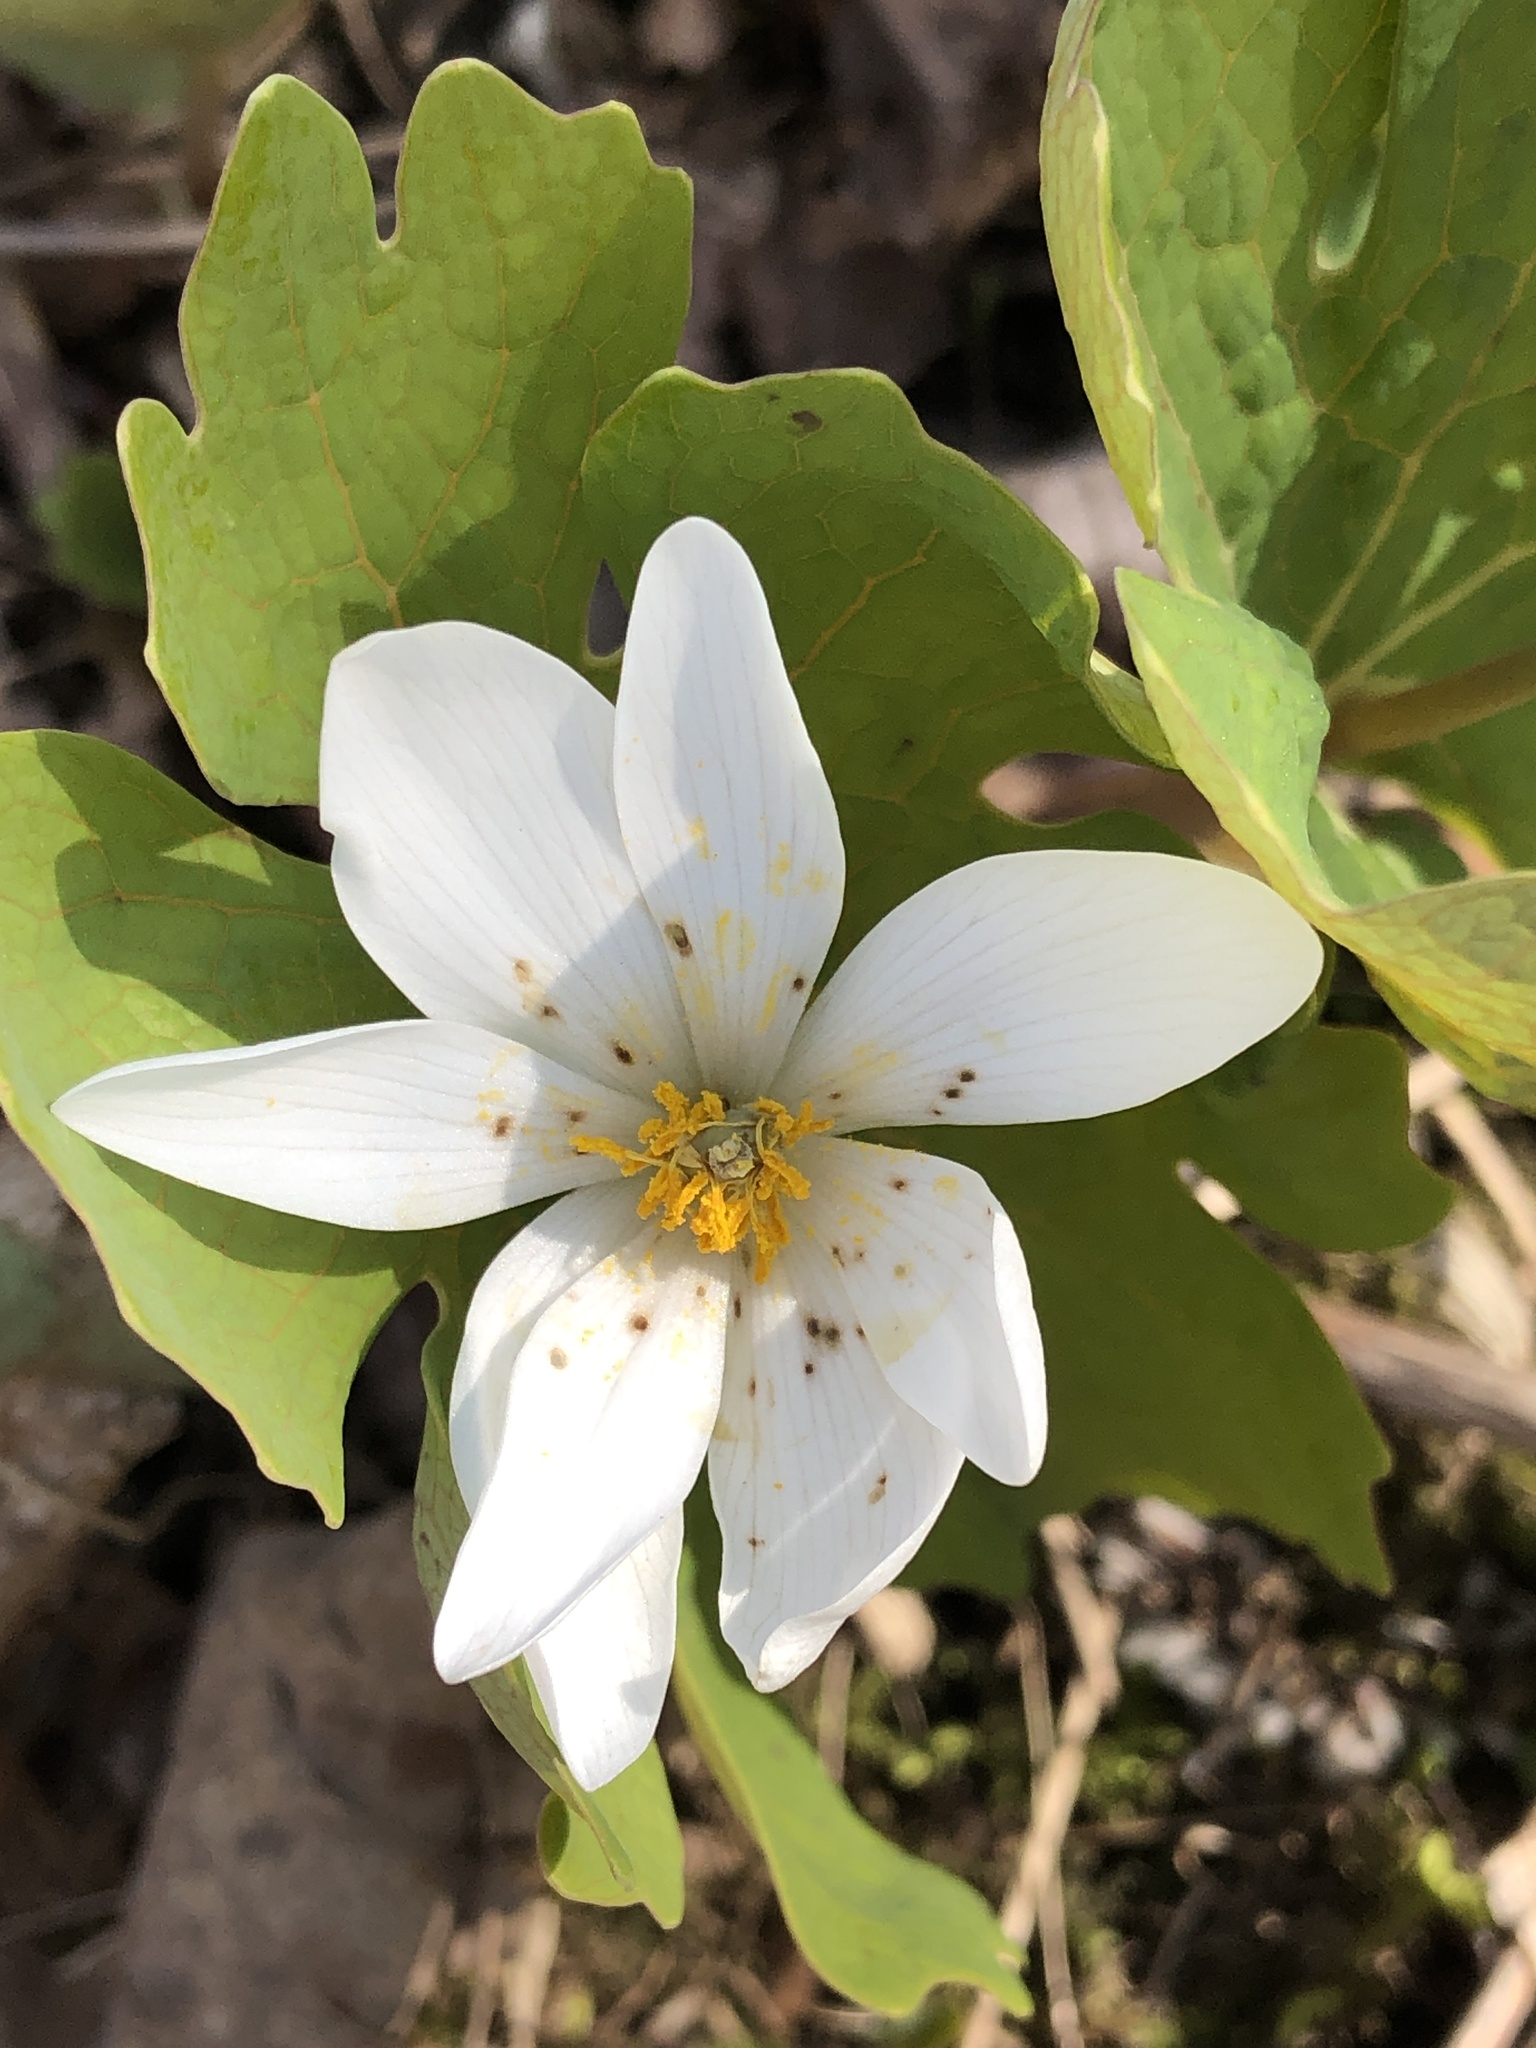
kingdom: Plantae
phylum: Tracheophyta
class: Magnoliopsida
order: Ranunculales
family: Papaveraceae
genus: Sanguinaria
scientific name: Sanguinaria canadensis
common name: Bloodroot
